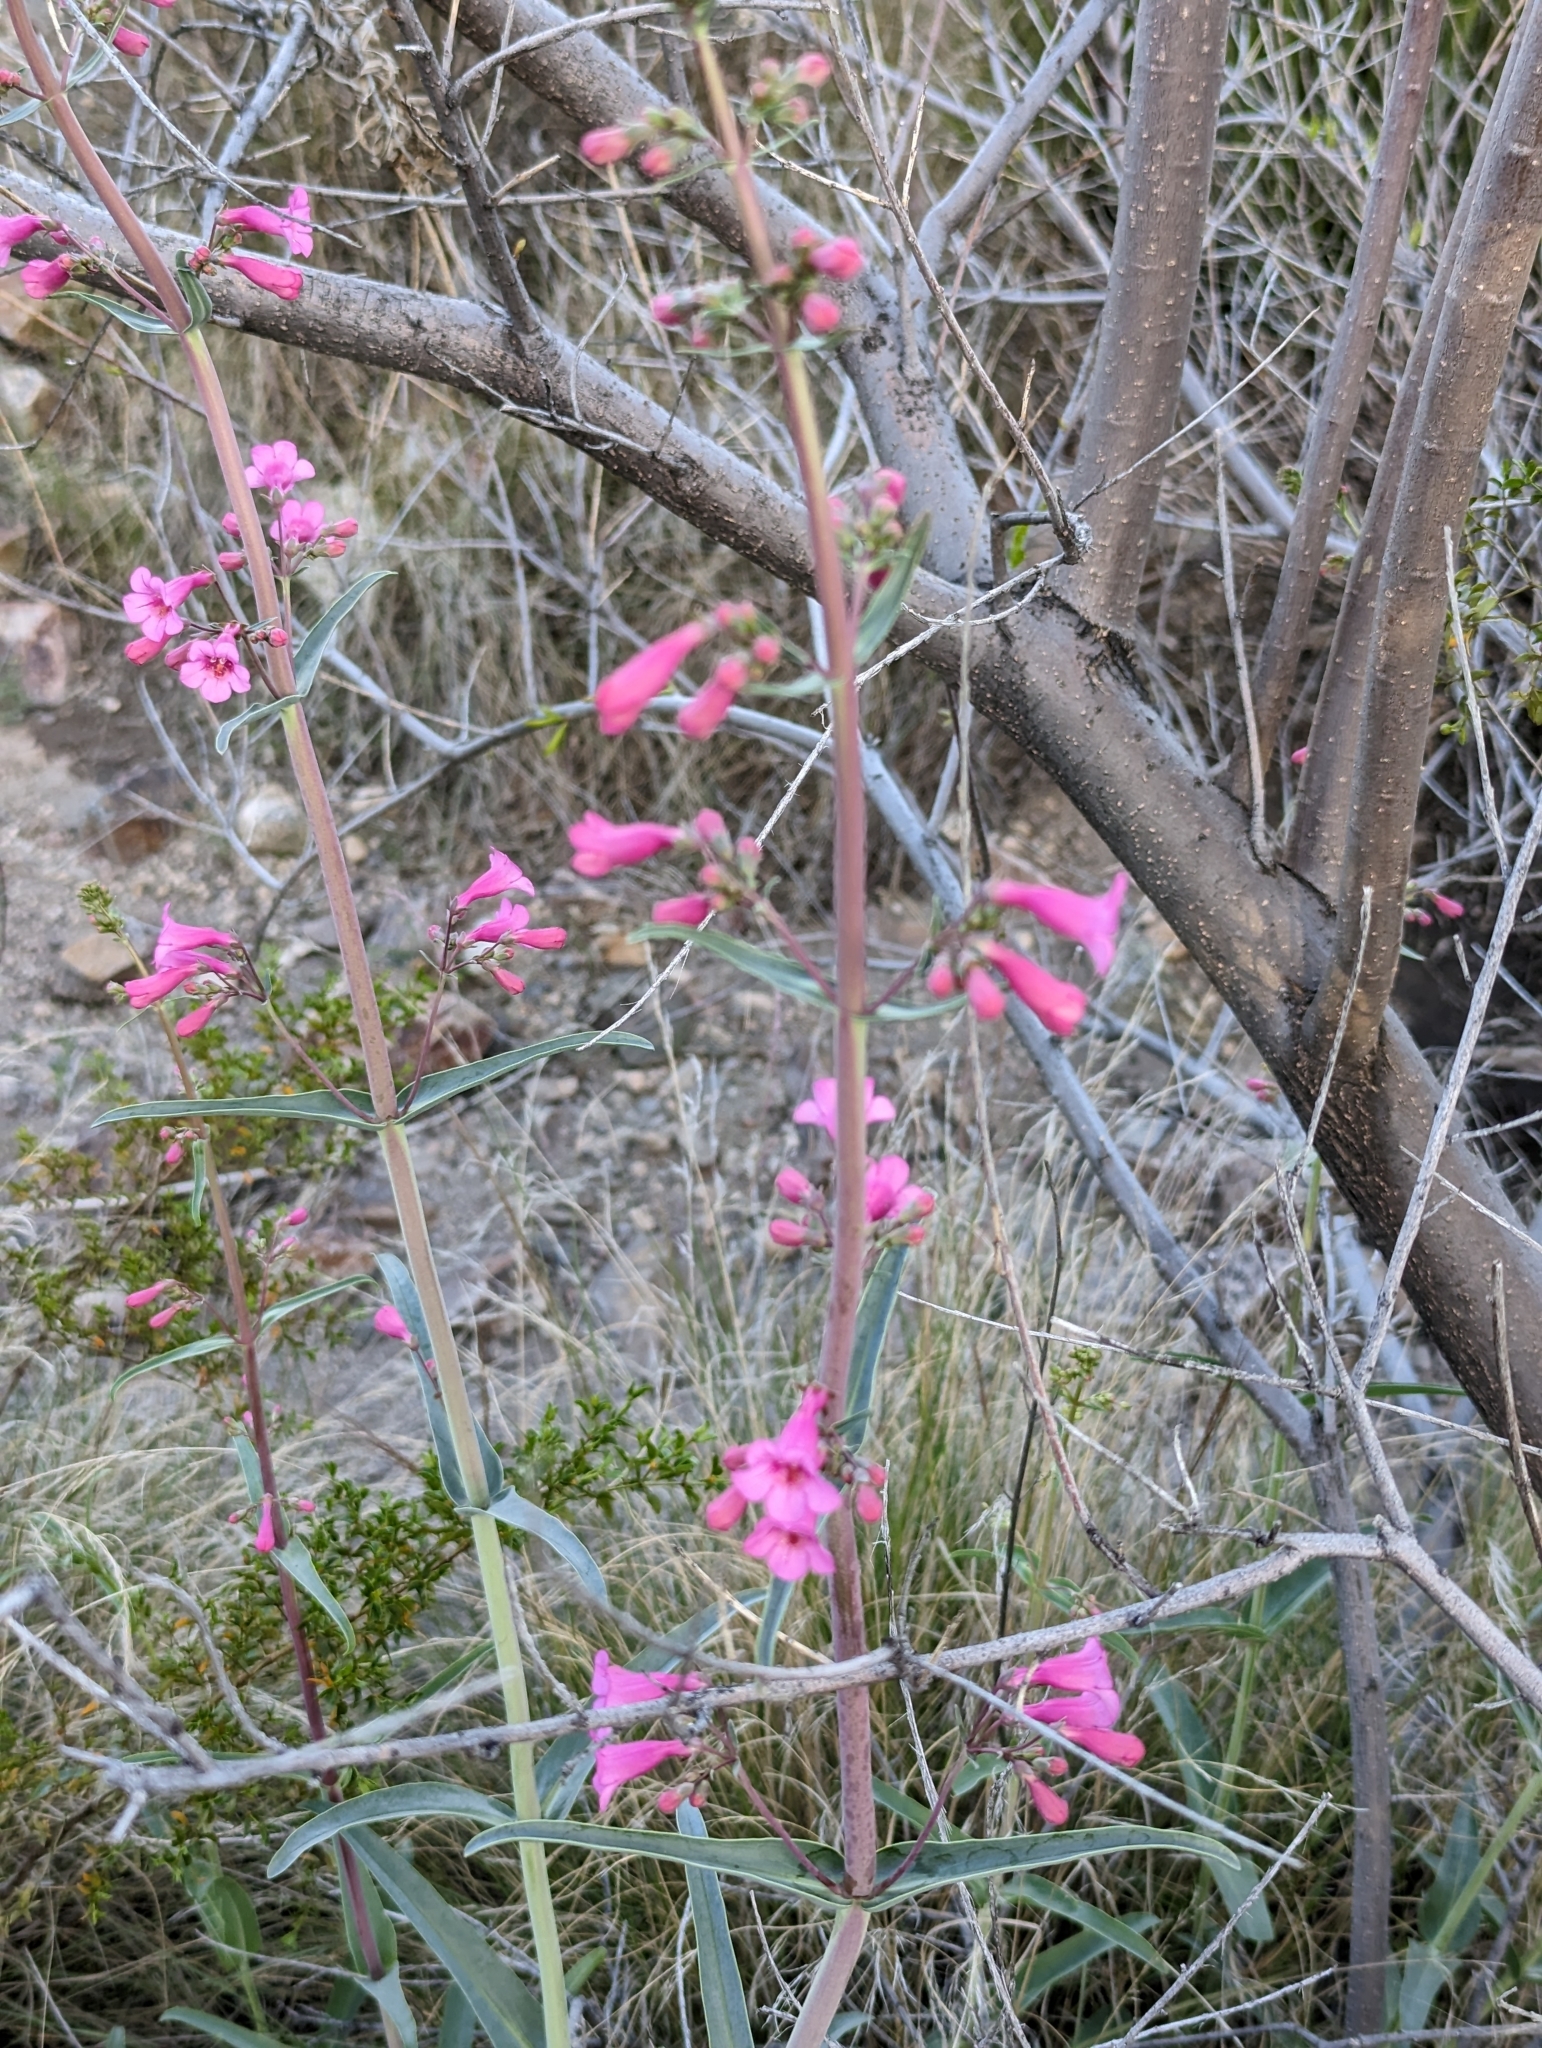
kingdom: Plantae
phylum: Tracheophyta
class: Magnoliopsida
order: Lamiales
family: Plantaginaceae
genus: Penstemon
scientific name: Penstemon parryi
